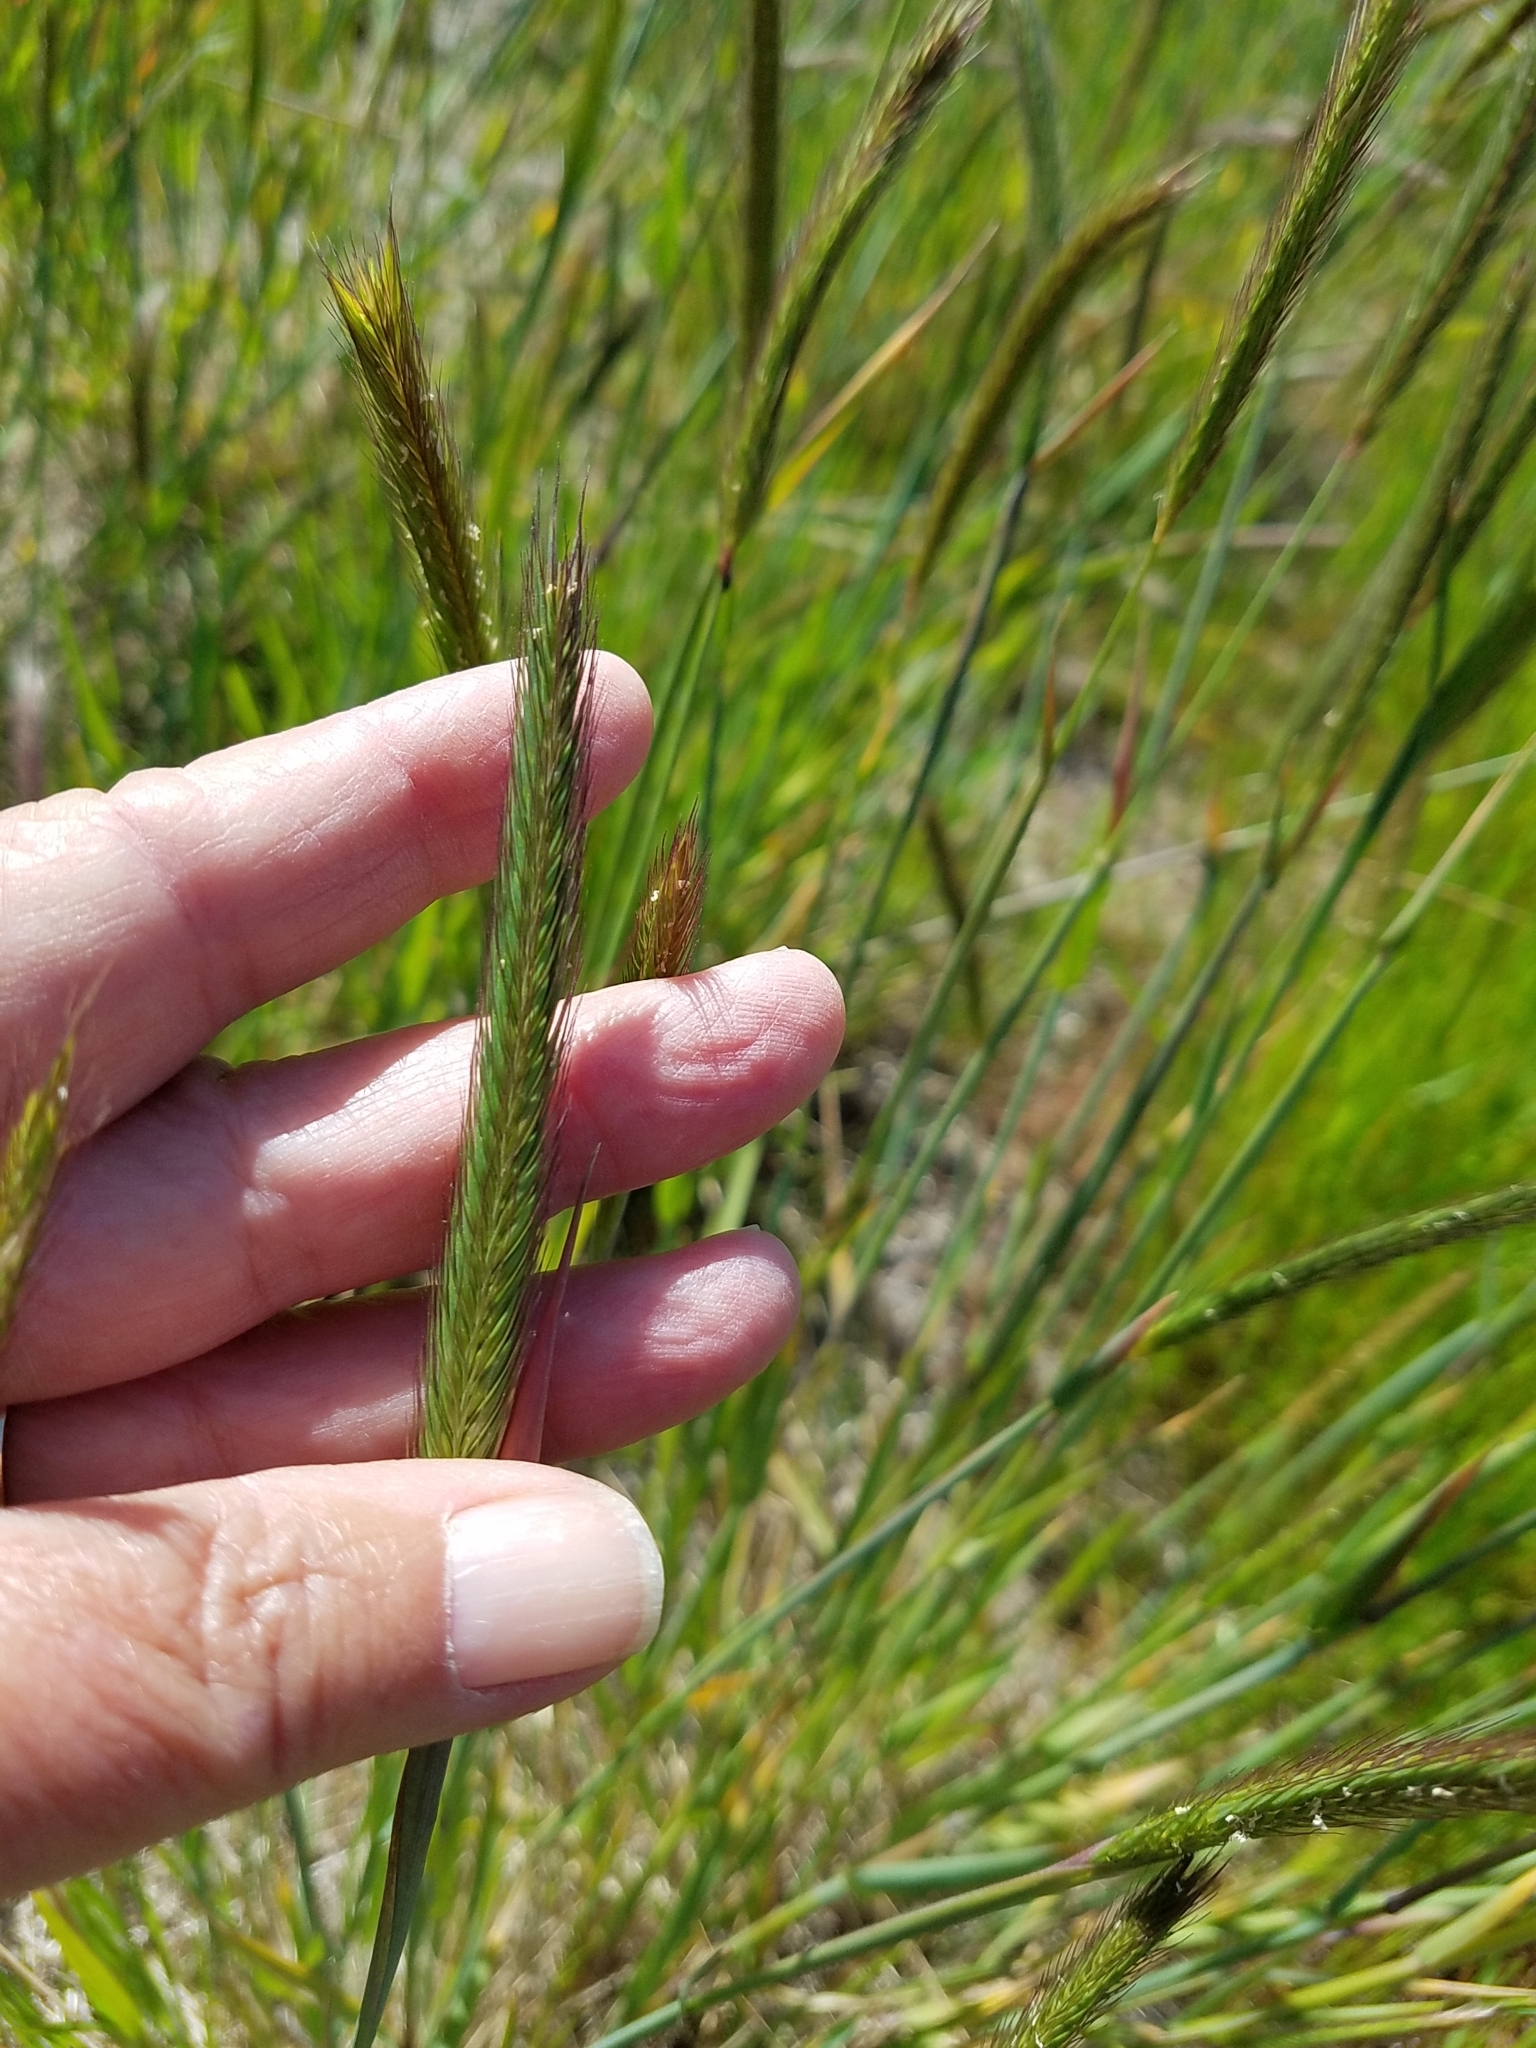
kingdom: Plantae
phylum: Tracheophyta
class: Liliopsida
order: Poales
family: Poaceae
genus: Hordeum
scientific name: Hordeum brachyantherum
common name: Meadow barley
